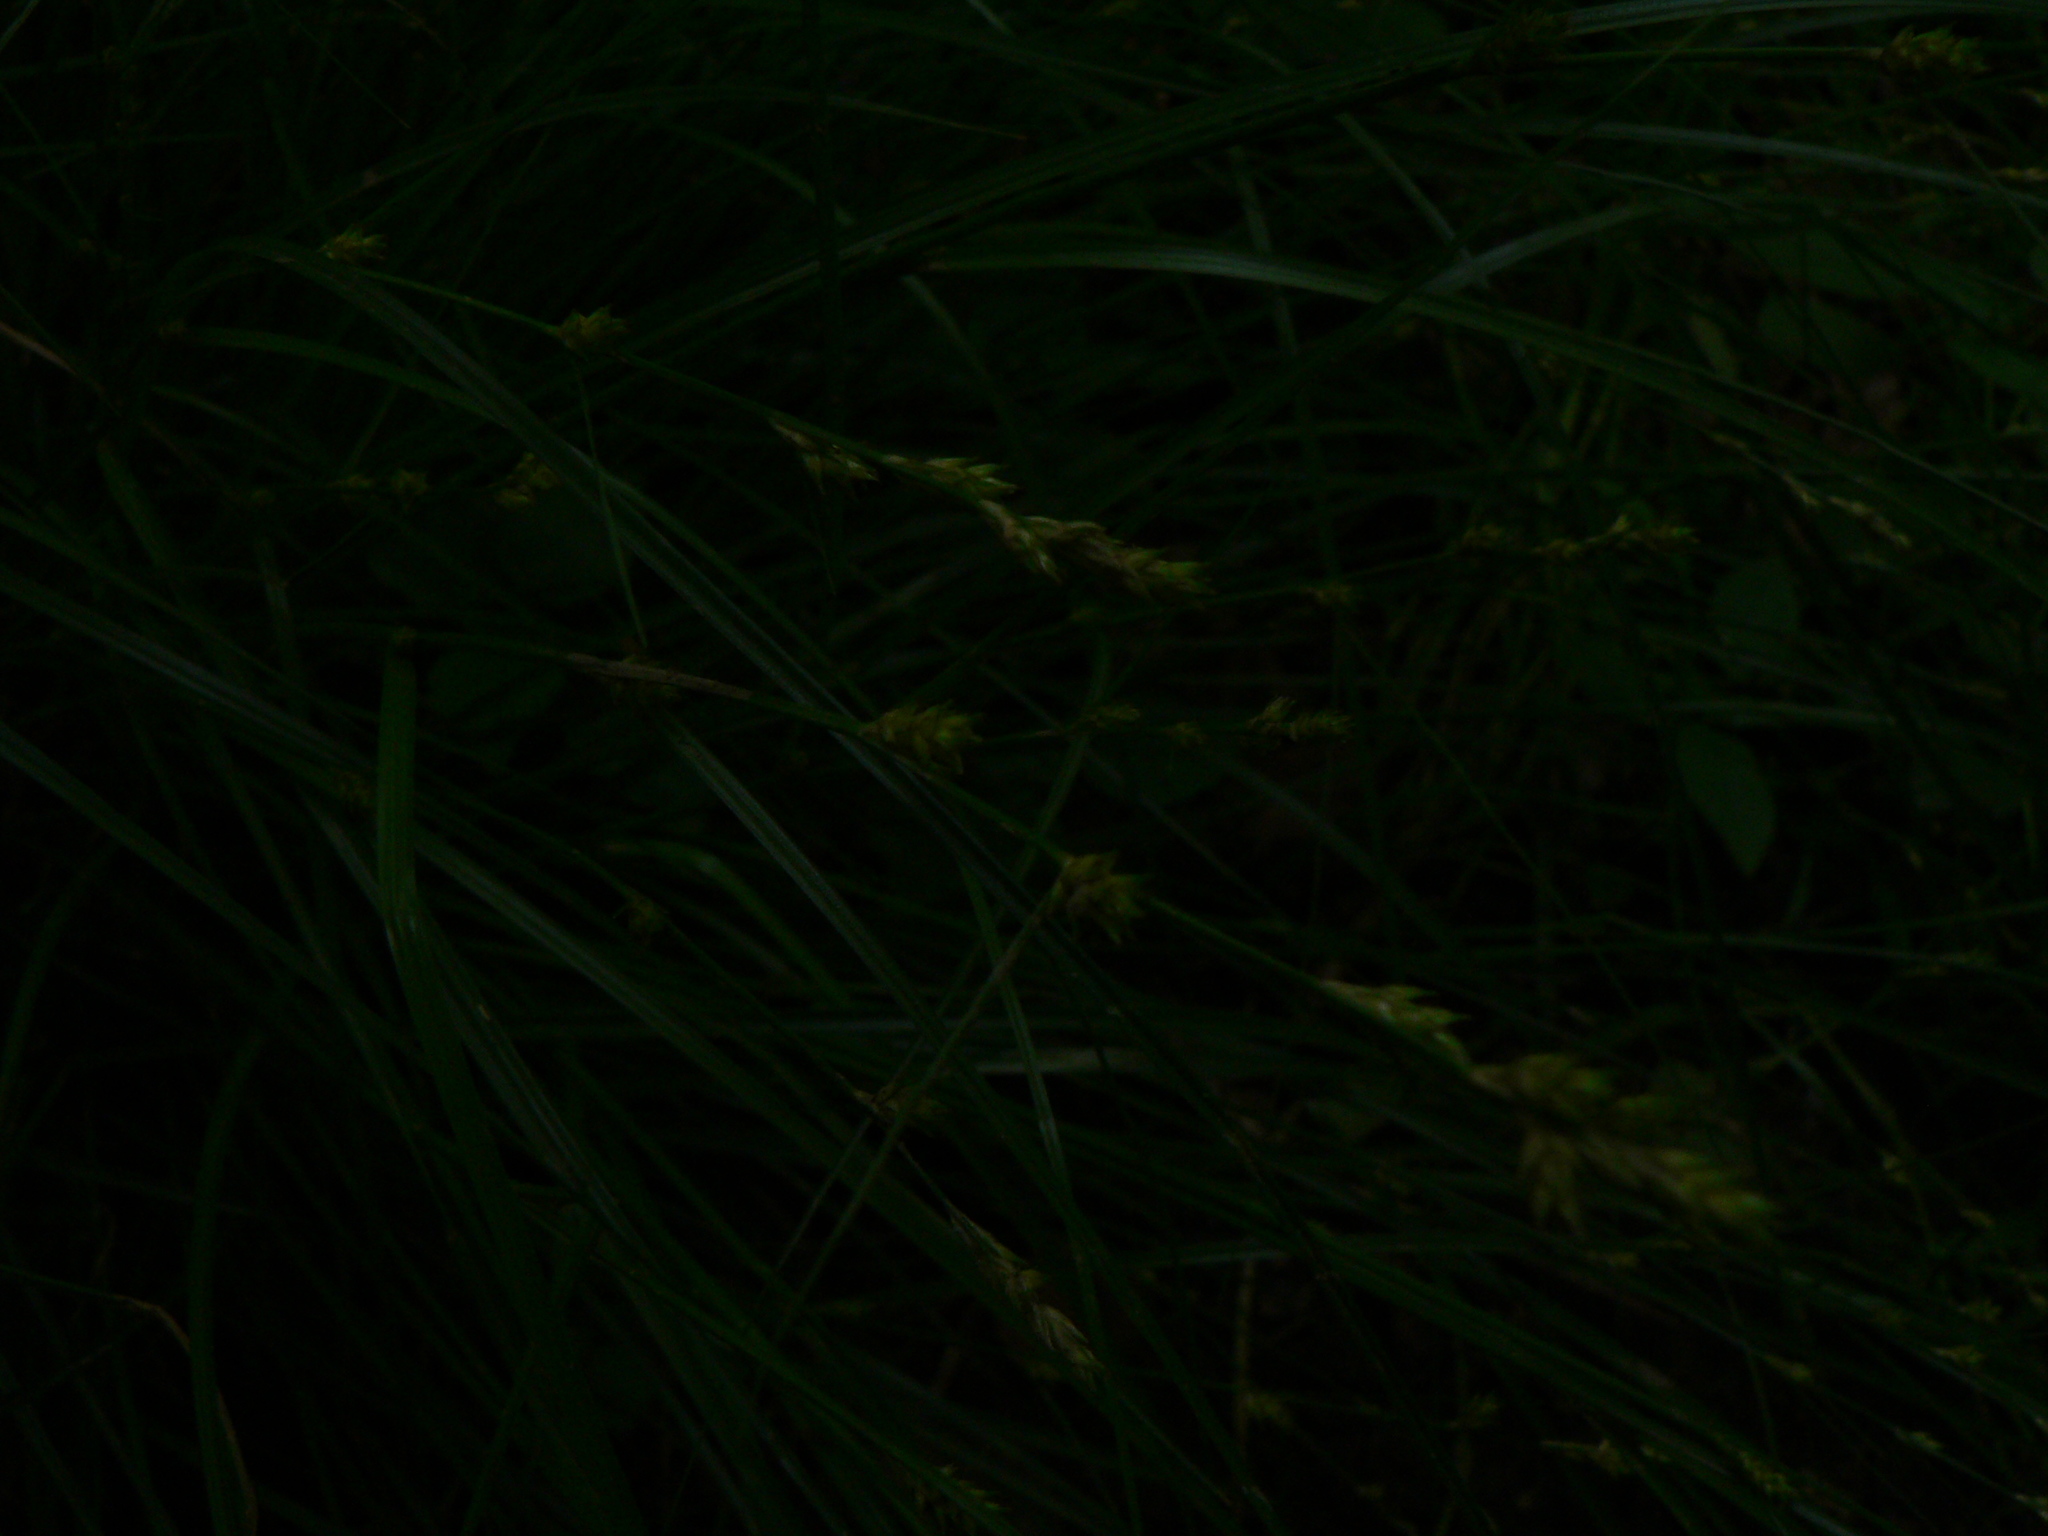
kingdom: Plantae
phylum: Tracheophyta
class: Liliopsida
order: Poales
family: Cyperaceae
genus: Carex
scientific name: Carex remota
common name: Remote sedge
